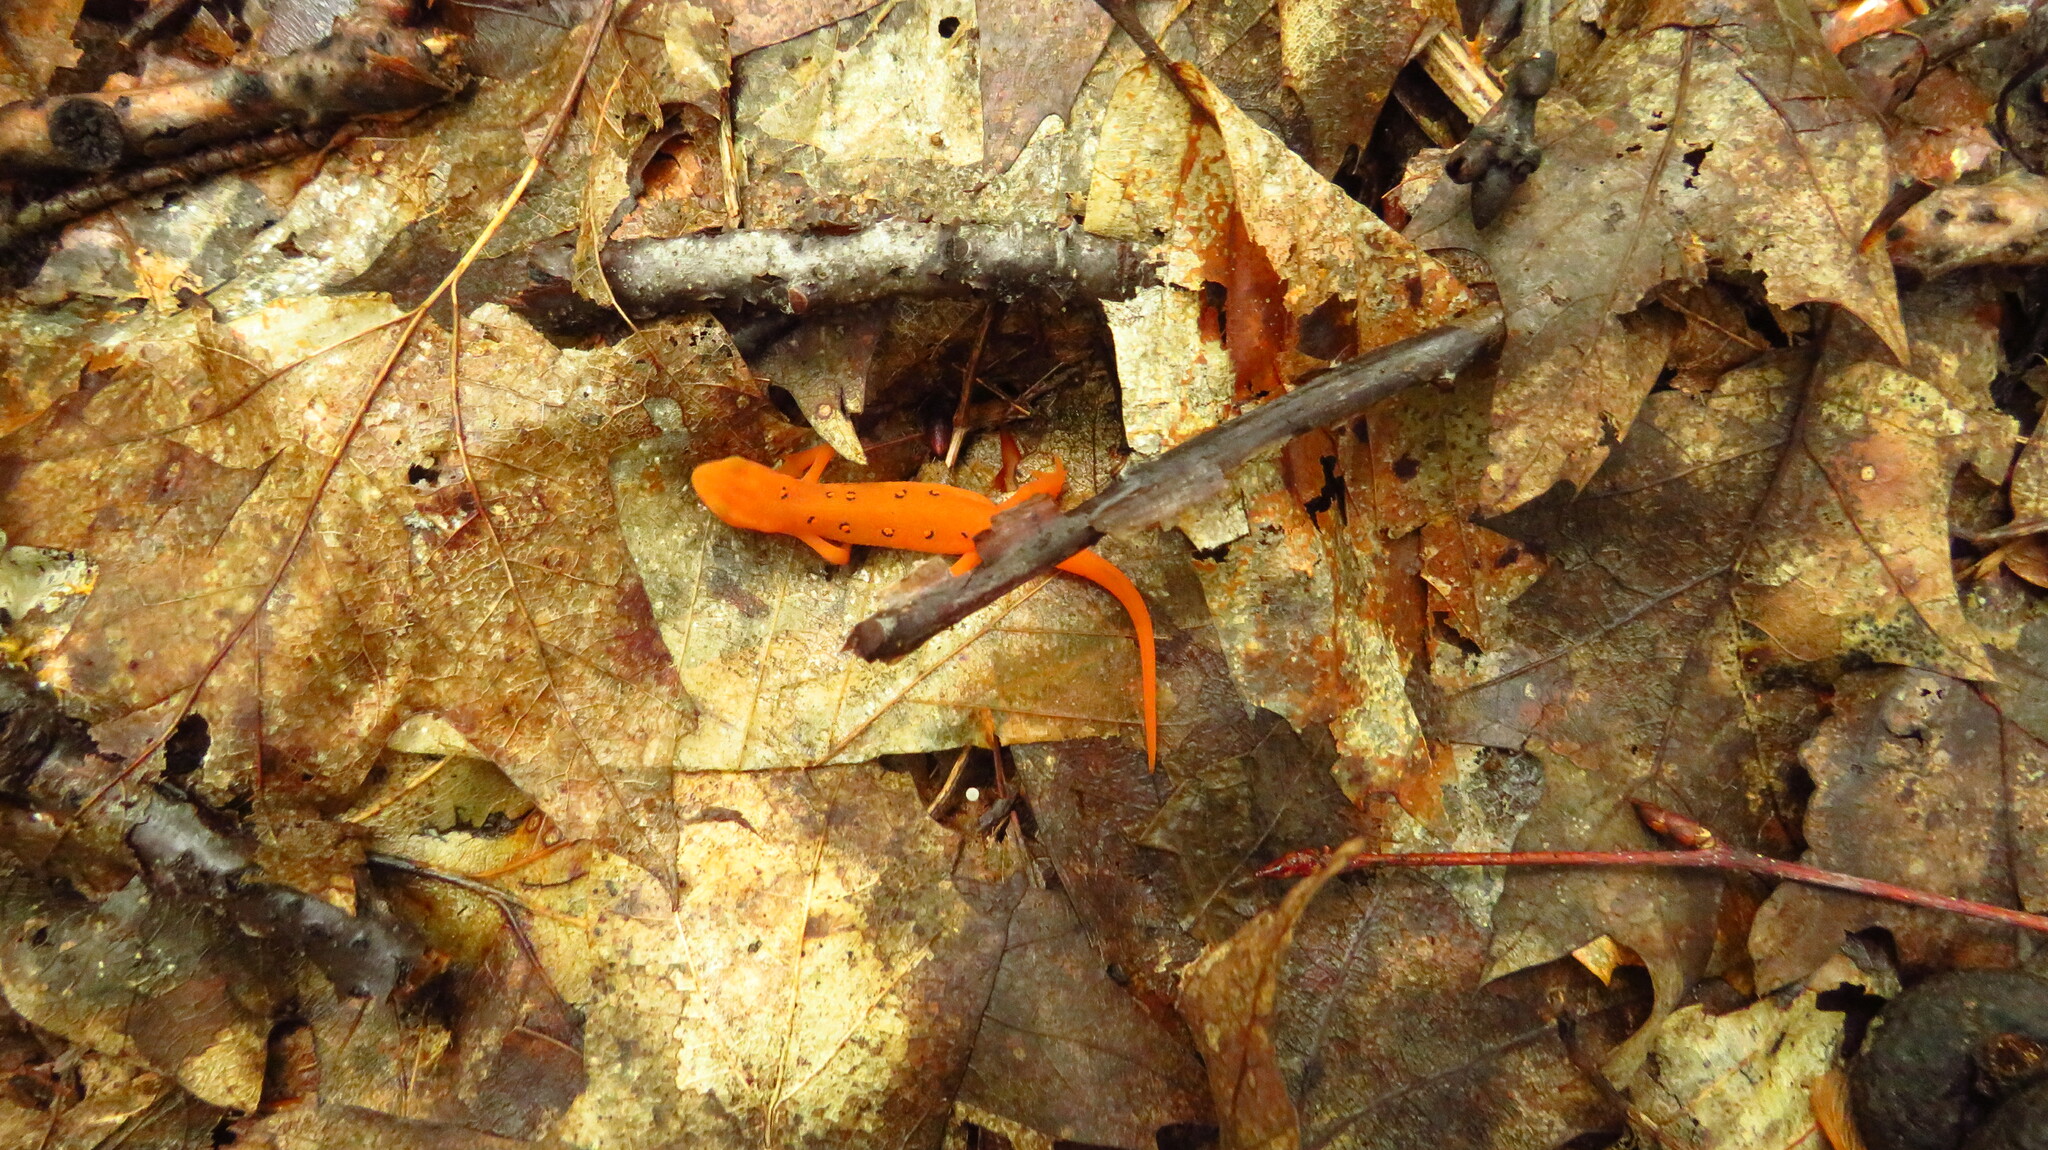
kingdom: Animalia
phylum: Chordata
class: Amphibia
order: Caudata
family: Salamandridae
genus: Notophthalmus
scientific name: Notophthalmus viridescens
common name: Eastern newt
